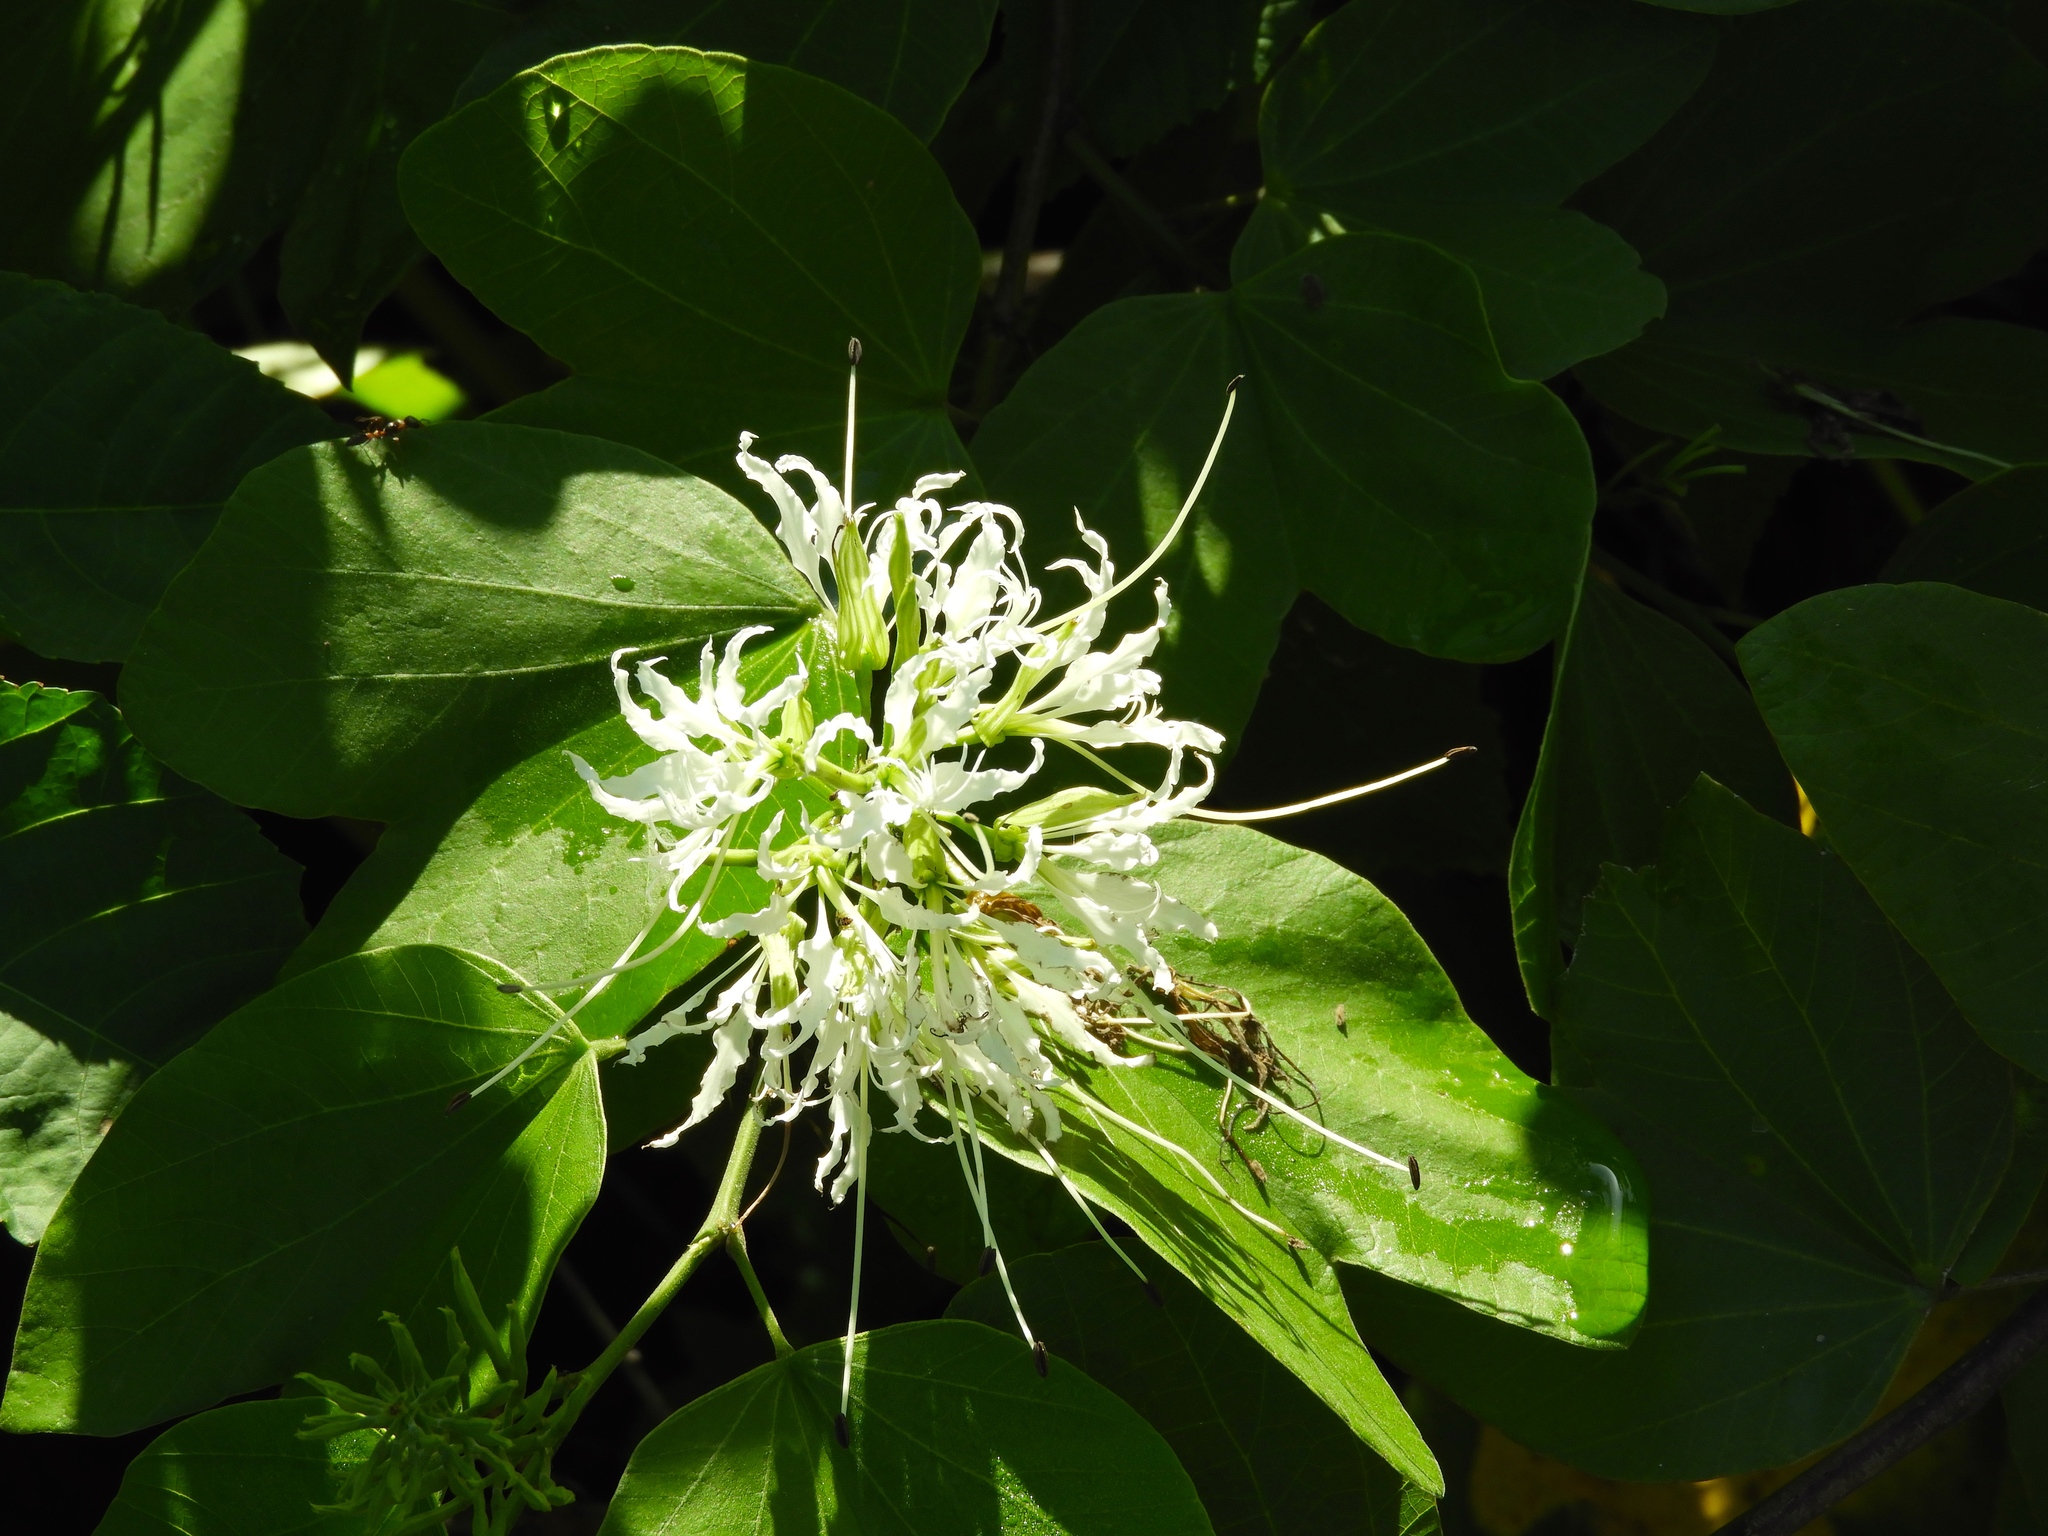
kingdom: Plantae
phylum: Tracheophyta
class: Magnoliopsida
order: Fabales
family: Fabaceae
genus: Bauhinia
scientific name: Bauhinia divaricata
